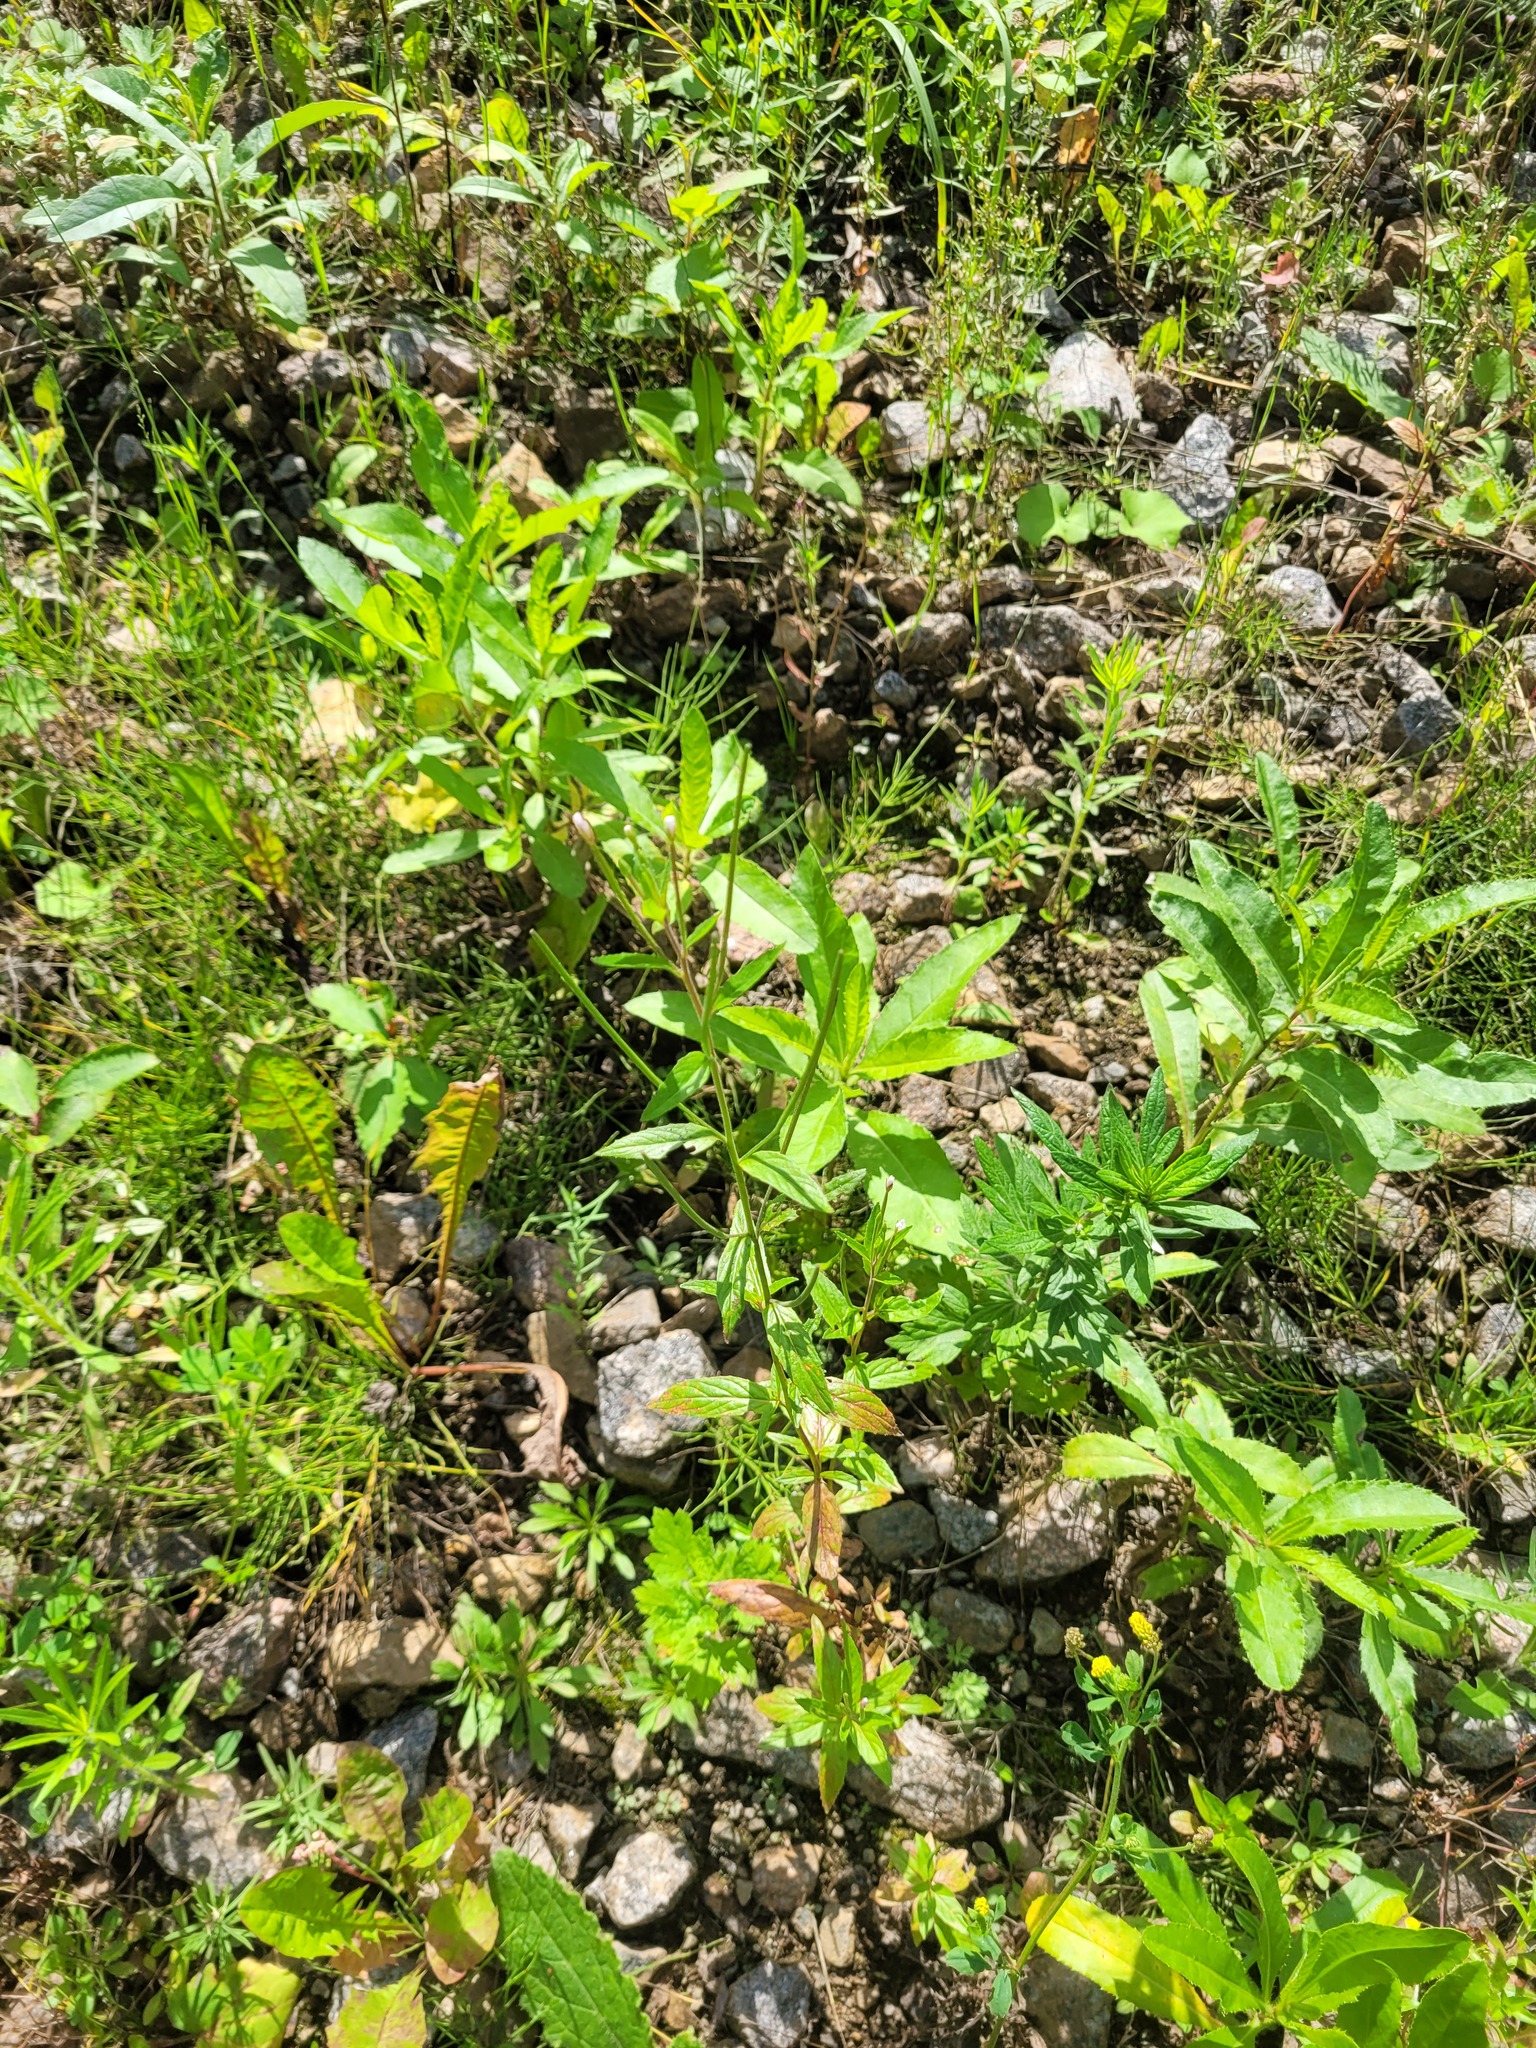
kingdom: Plantae
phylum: Tracheophyta
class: Magnoliopsida
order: Myrtales
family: Onagraceae
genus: Epilobium
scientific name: Epilobium pseudorubescens
